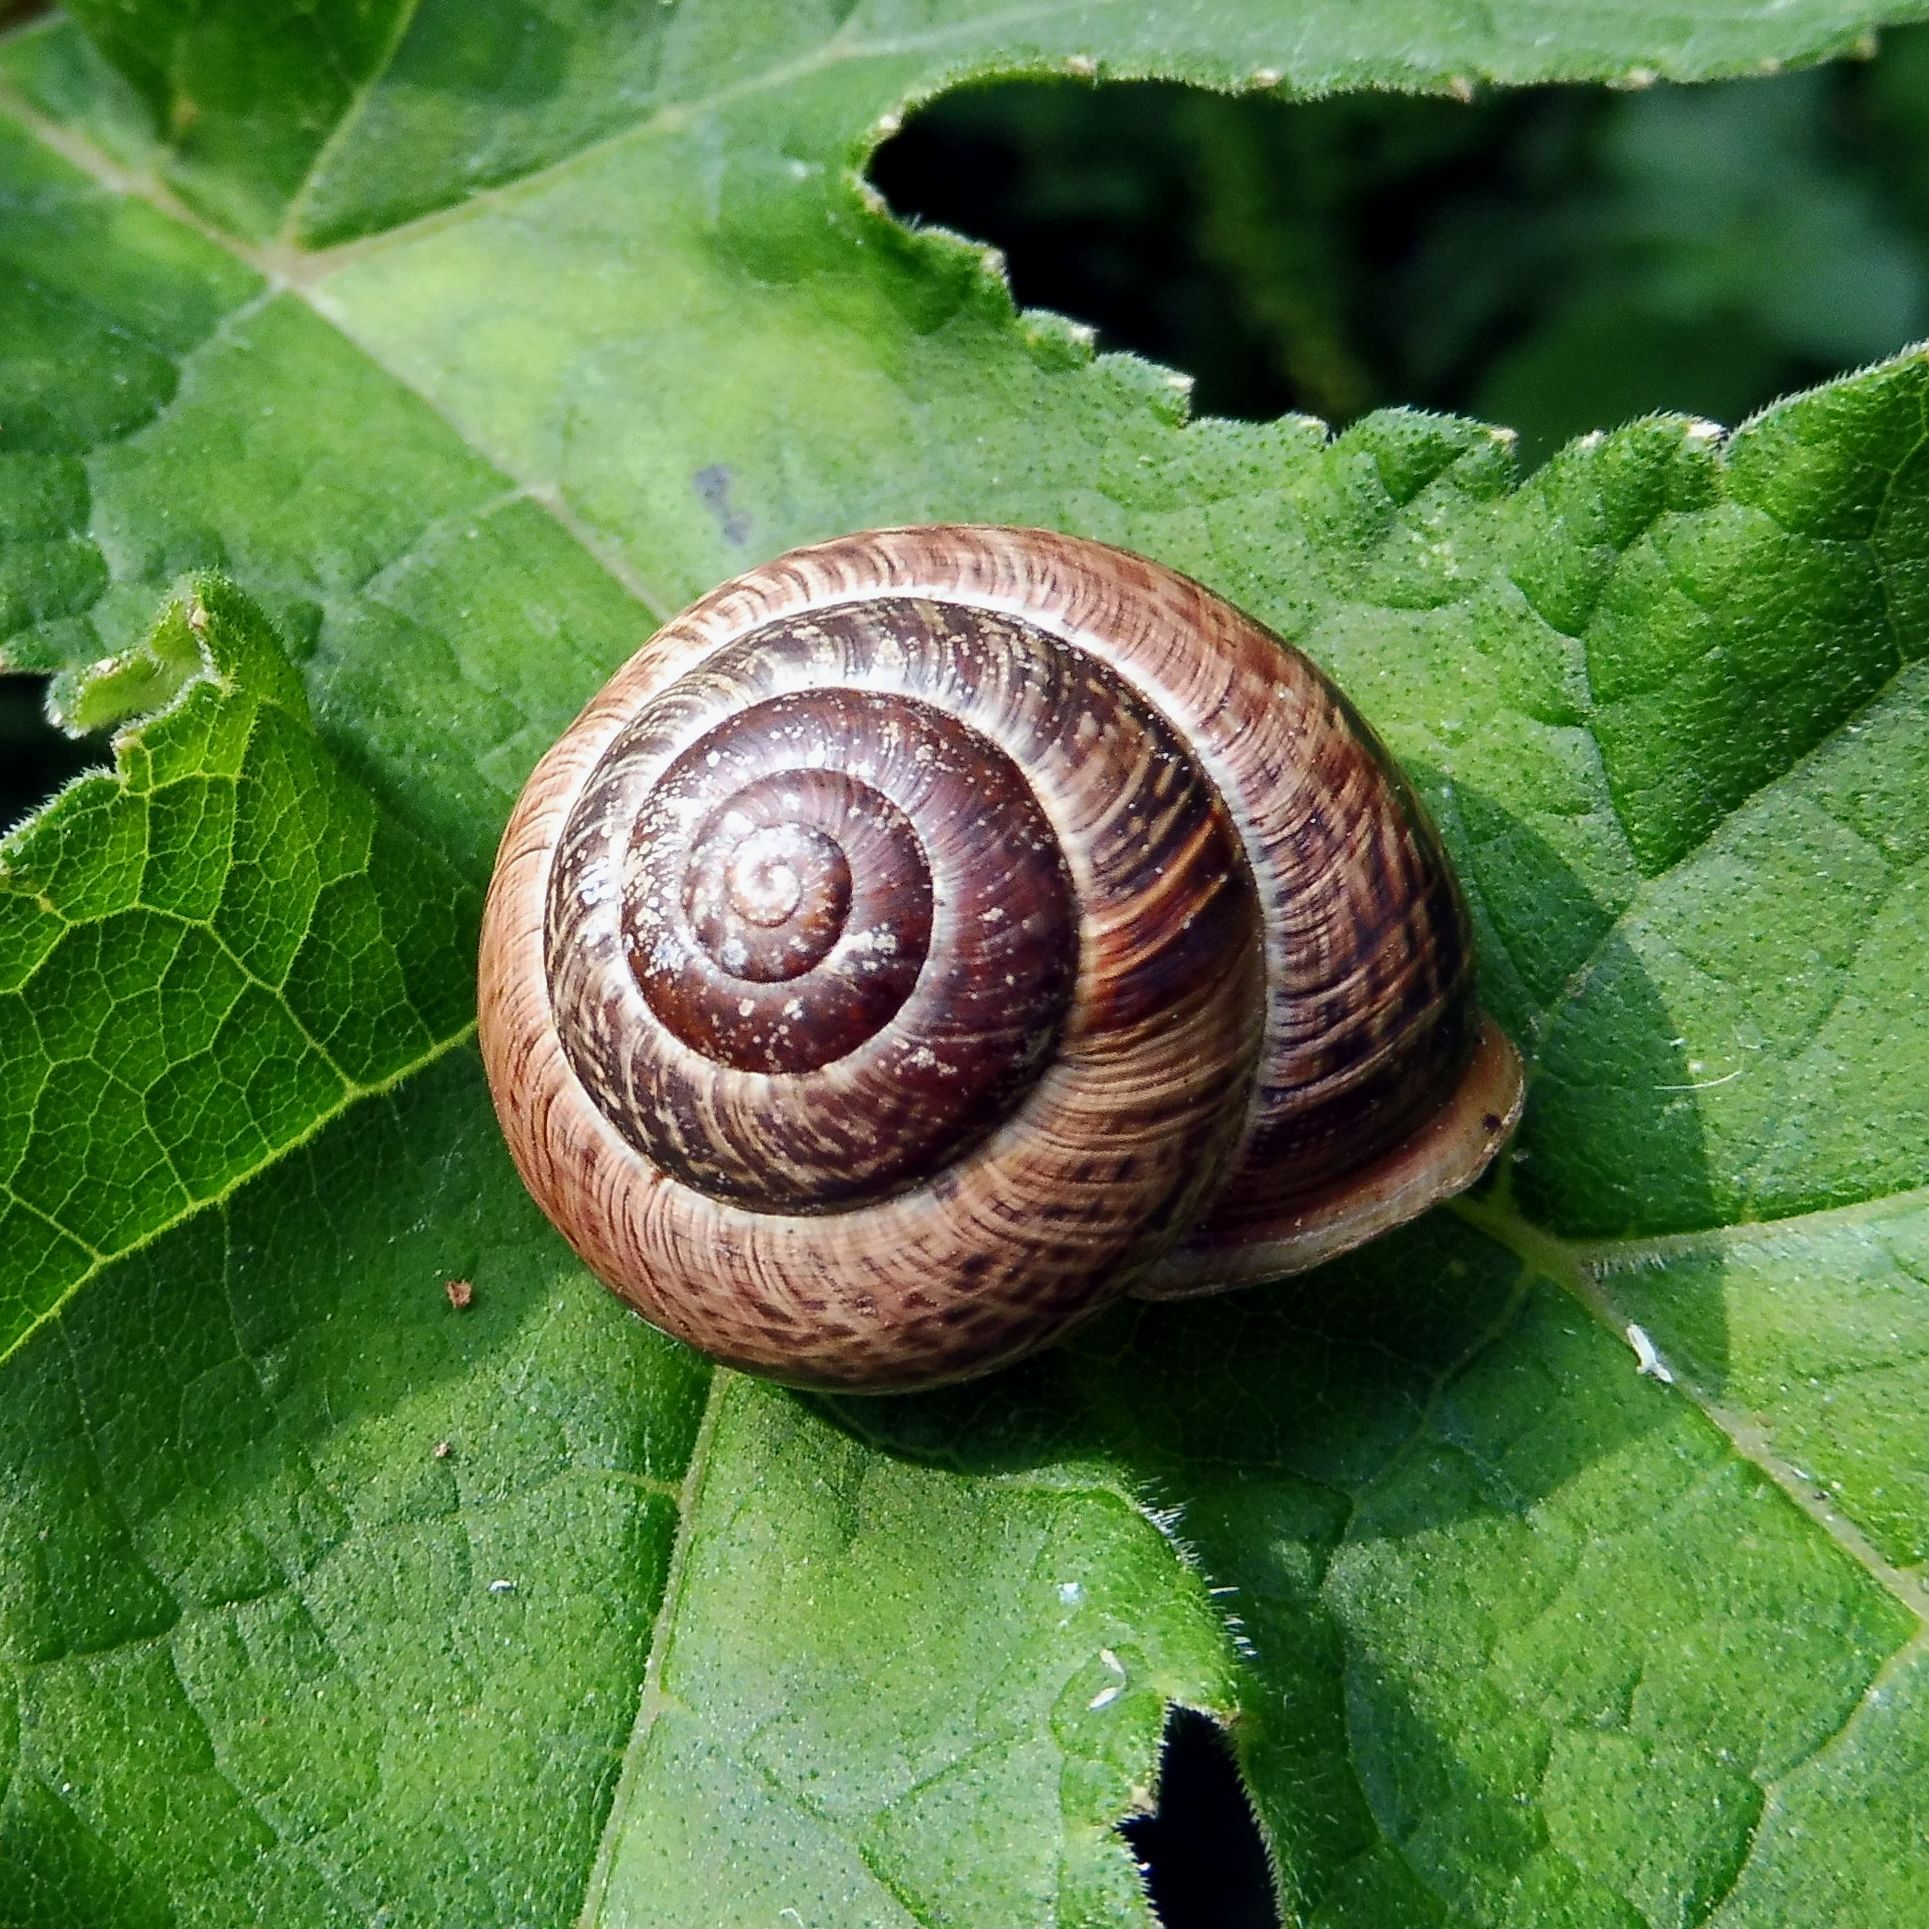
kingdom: Animalia
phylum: Mollusca
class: Gastropoda
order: Stylommatophora
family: Helicidae
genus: Arianta
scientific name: Arianta arbustorum
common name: Copse snail
